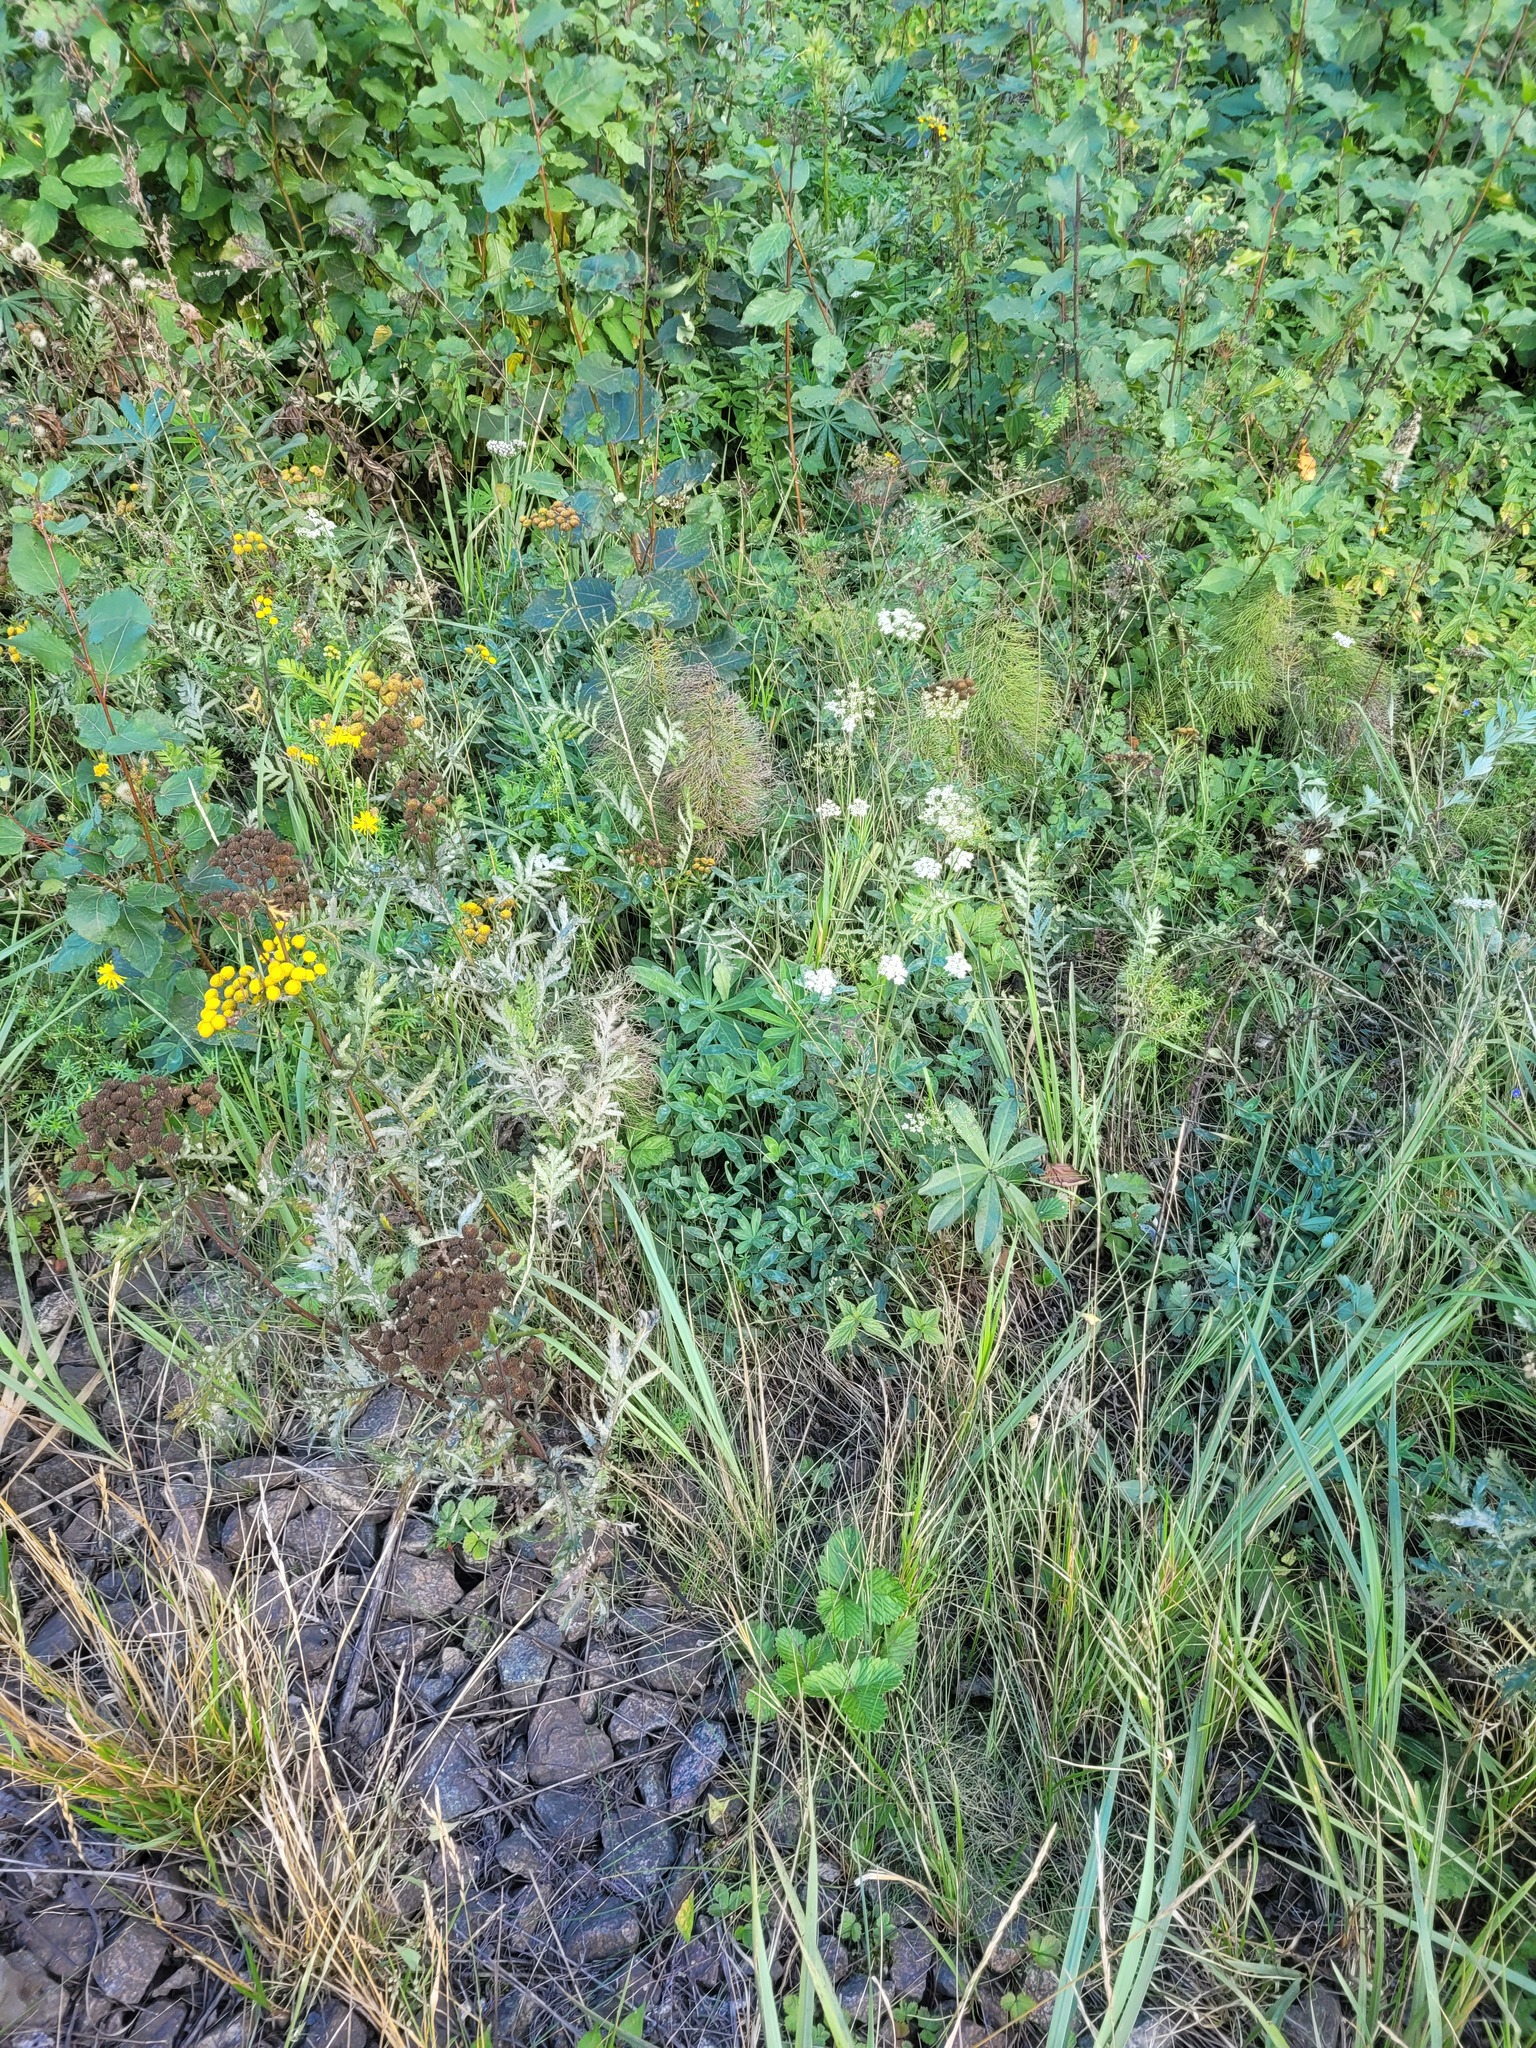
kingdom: Plantae
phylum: Tracheophyta
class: Magnoliopsida
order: Fabales
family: Fabaceae
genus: Trifolium
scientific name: Trifolium medium
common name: Zigzag clover
